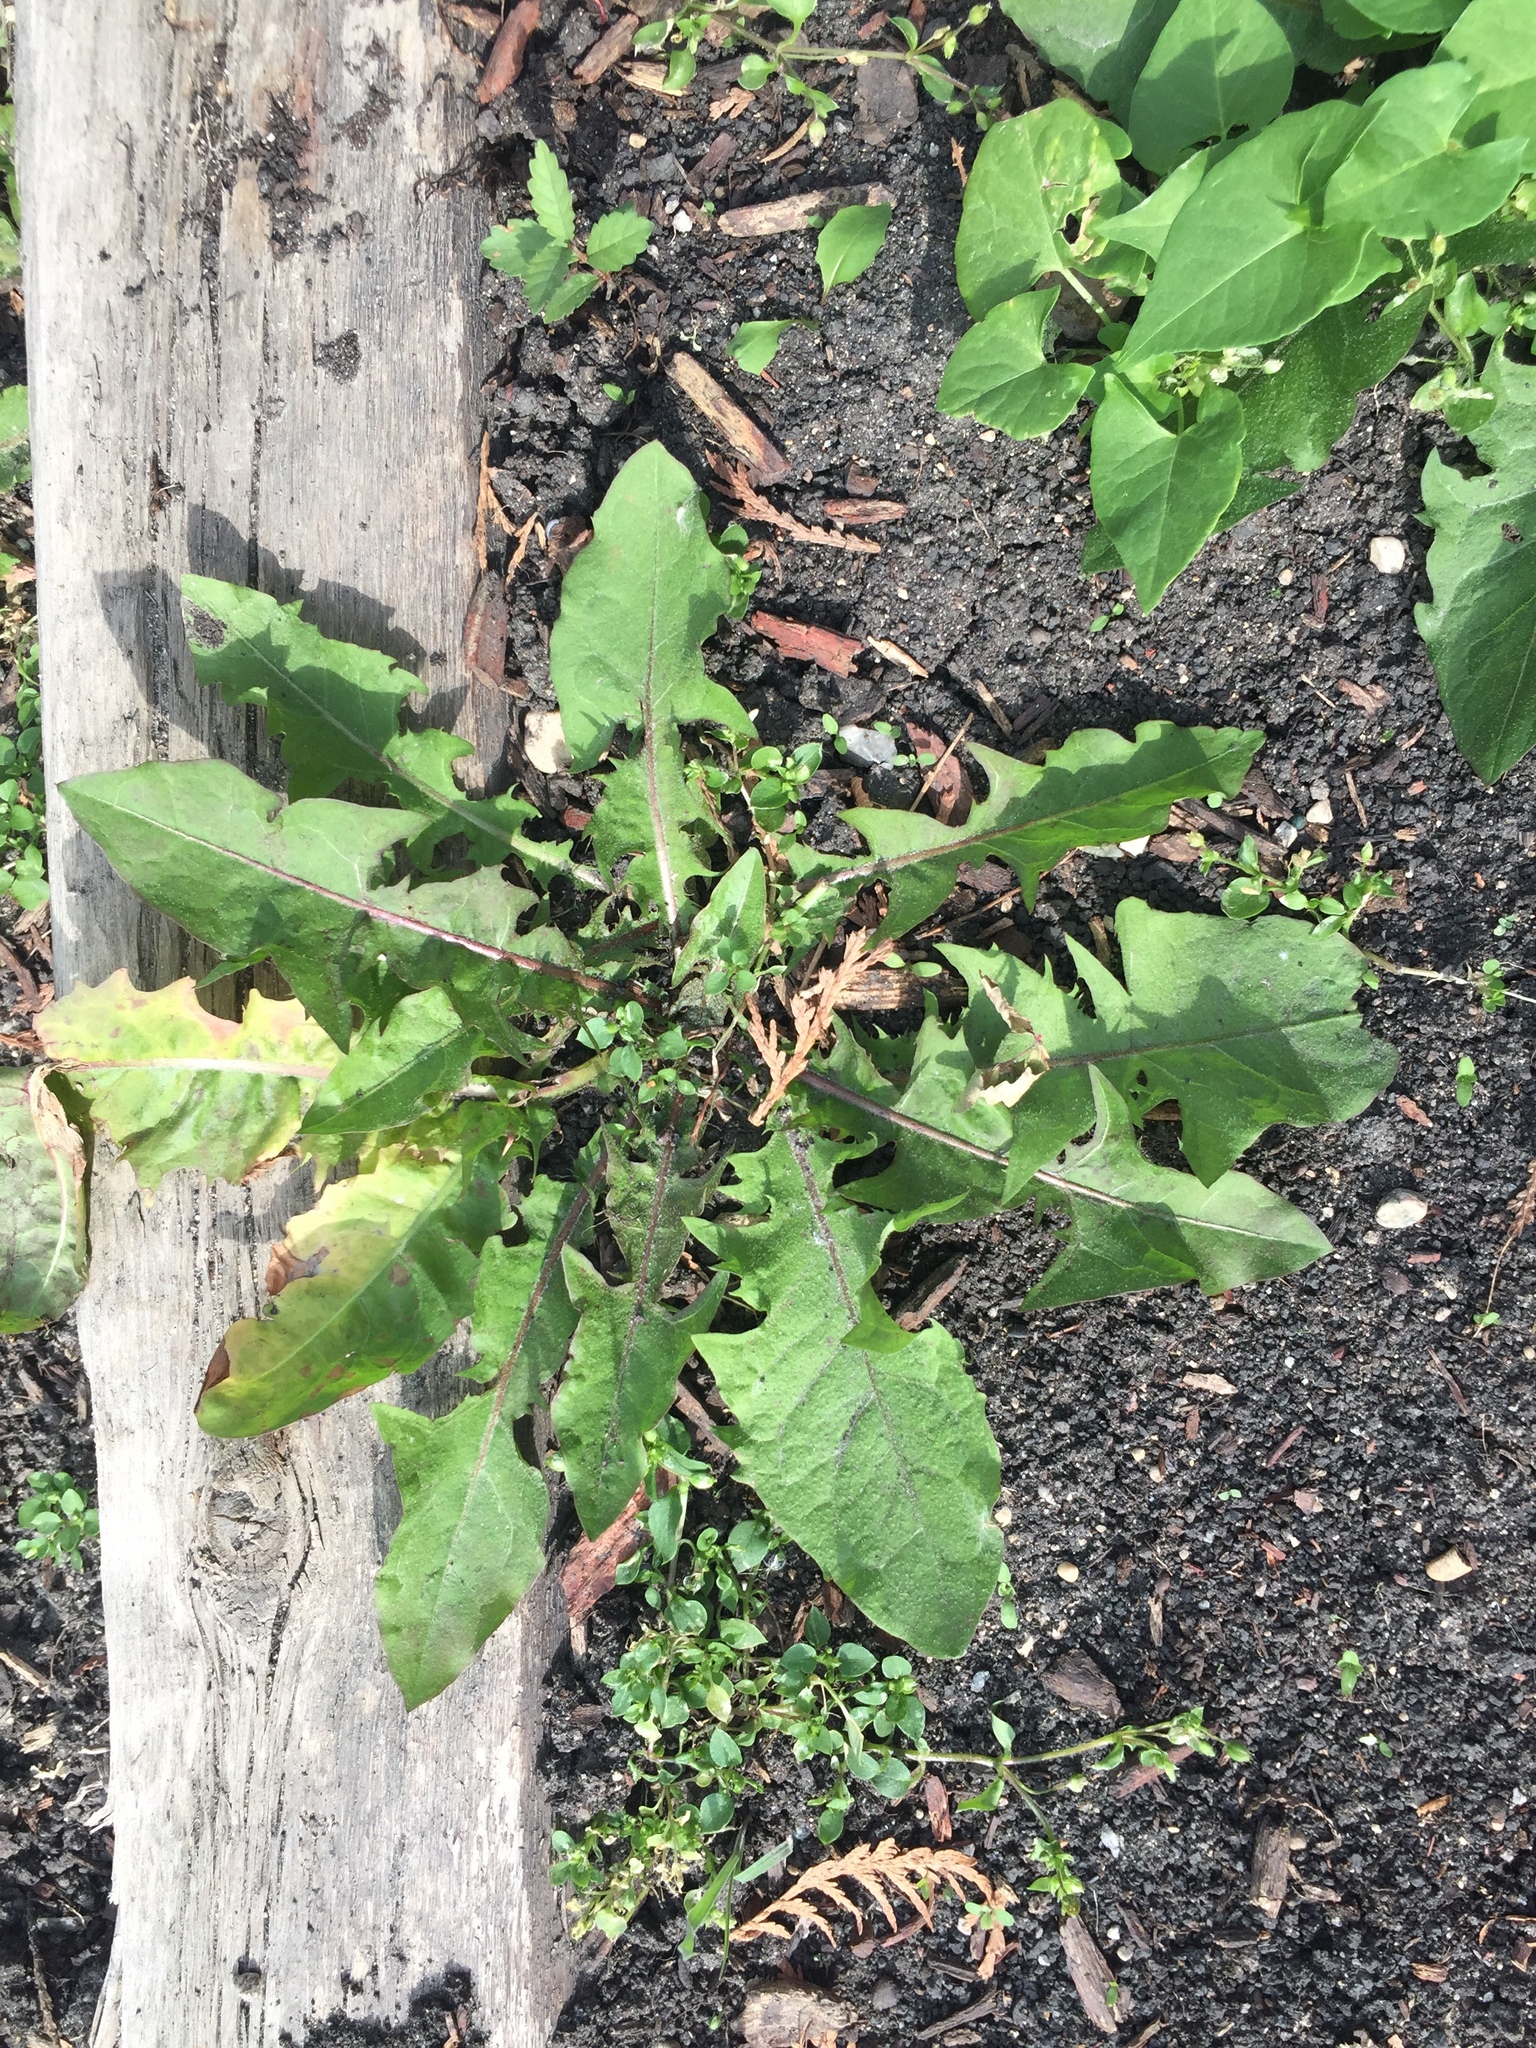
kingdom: Plantae
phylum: Tracheophyta
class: Magnoliopsida
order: Asterales
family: Asteraceae
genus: Taraxacum
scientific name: Taraxacum officinale
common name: Common dandelion
